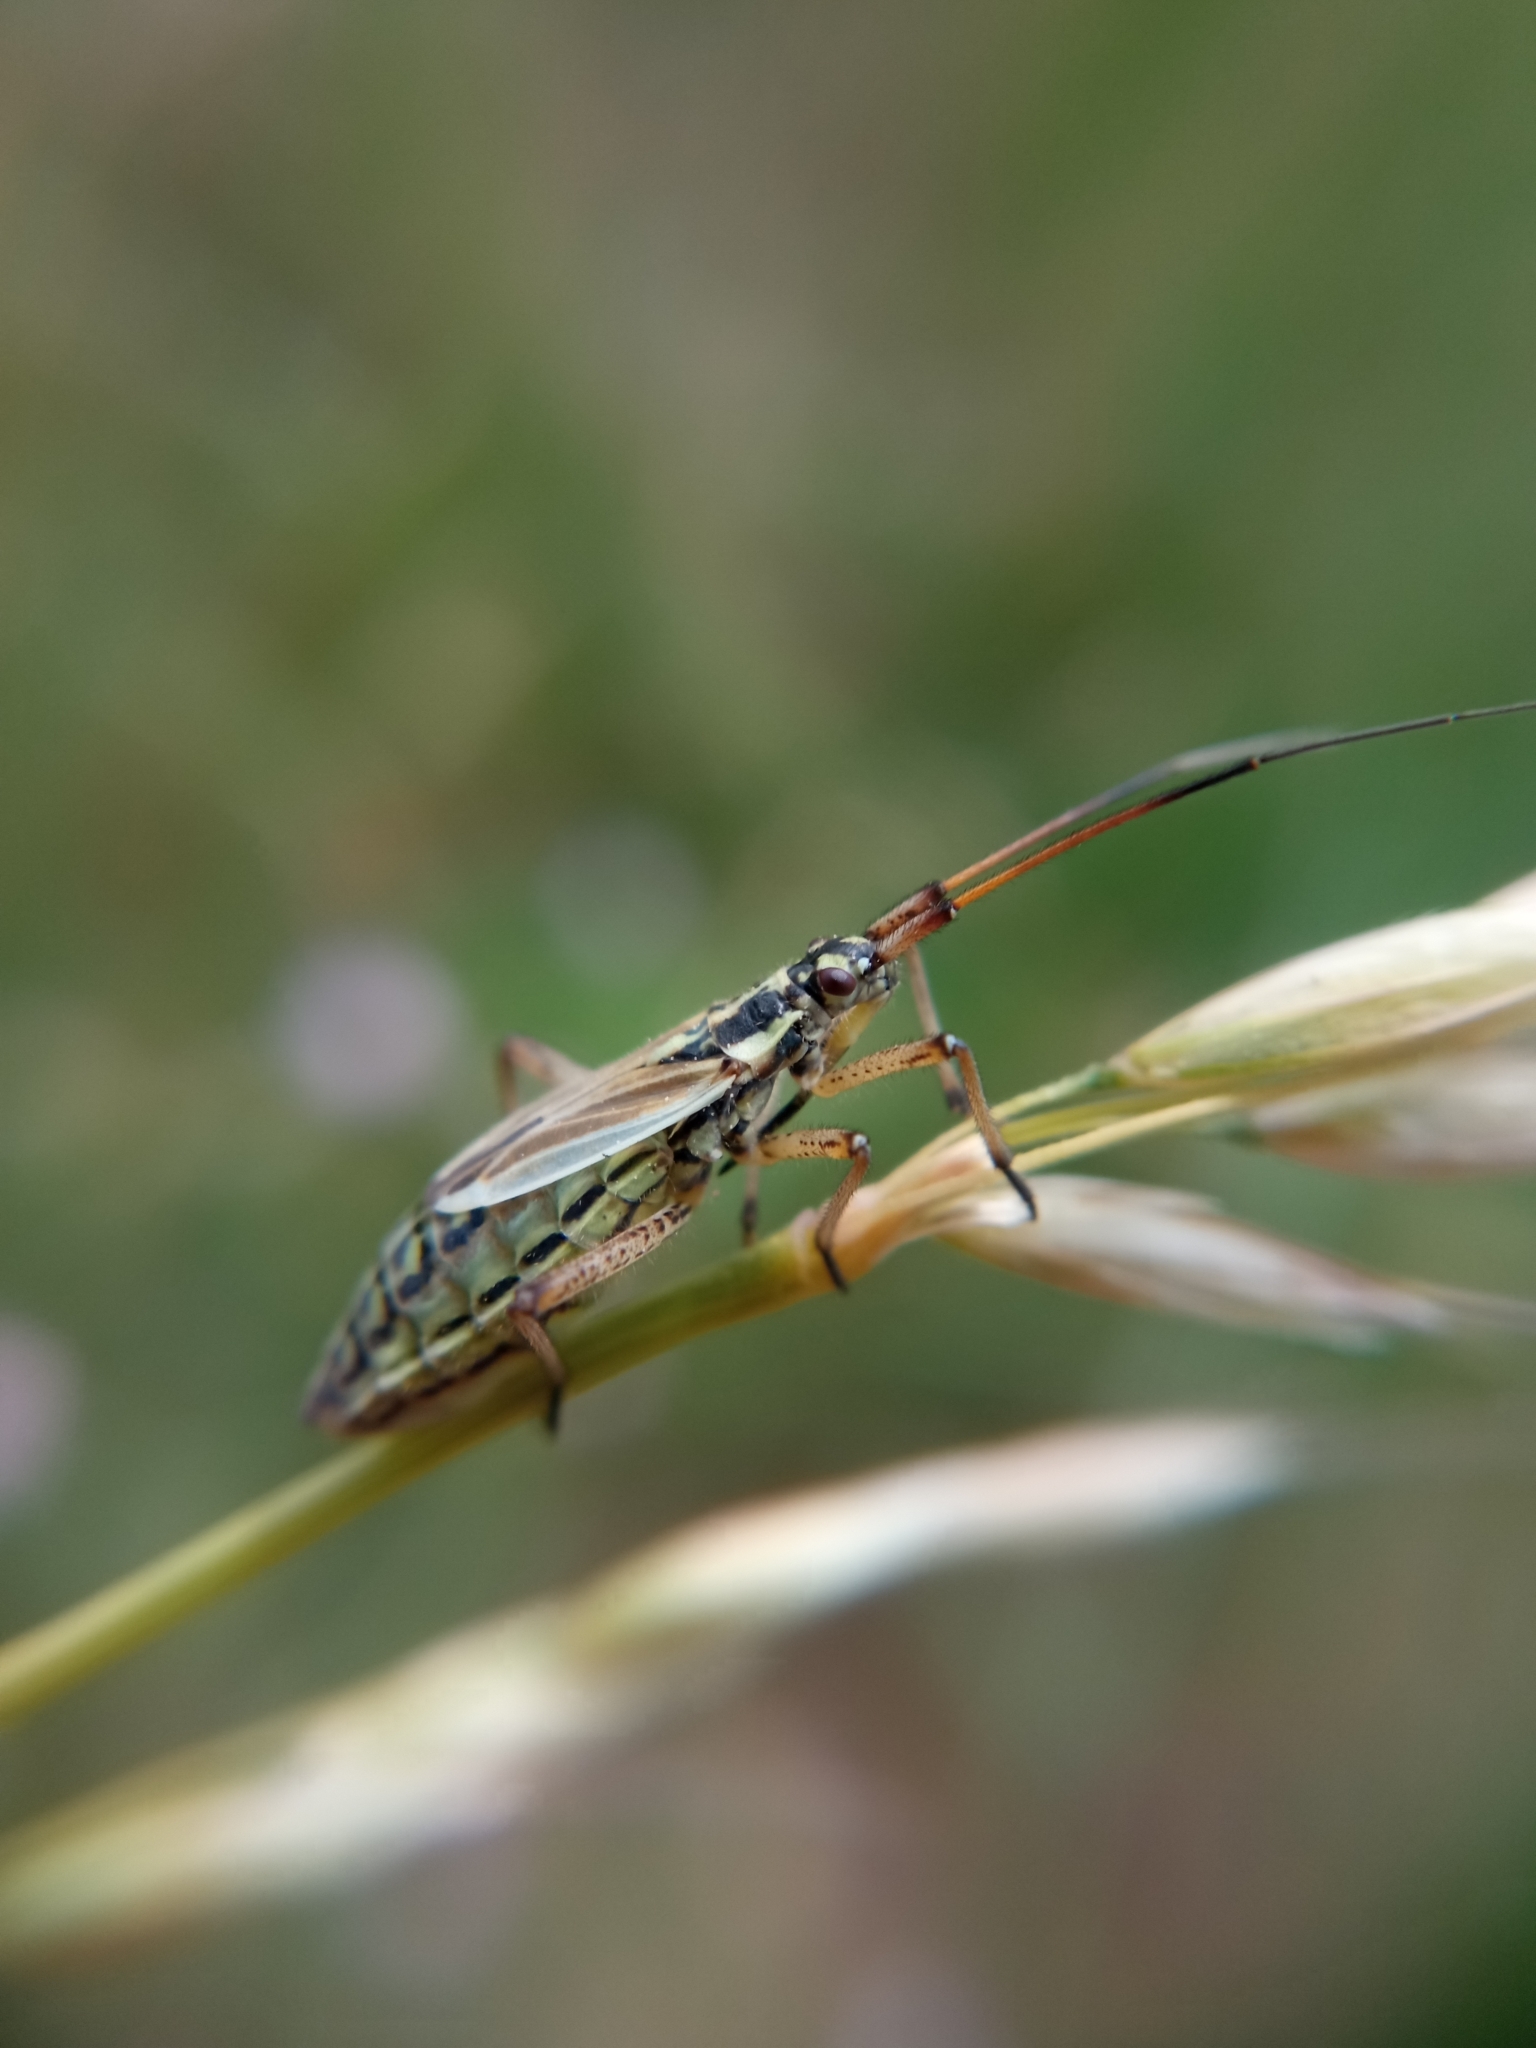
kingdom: Animalia
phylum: Arthropoda
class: Insecta
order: Hemiptera
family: Miridae
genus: Leptopterna
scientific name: Leptopterna dolabrata
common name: Meadow plant bug
